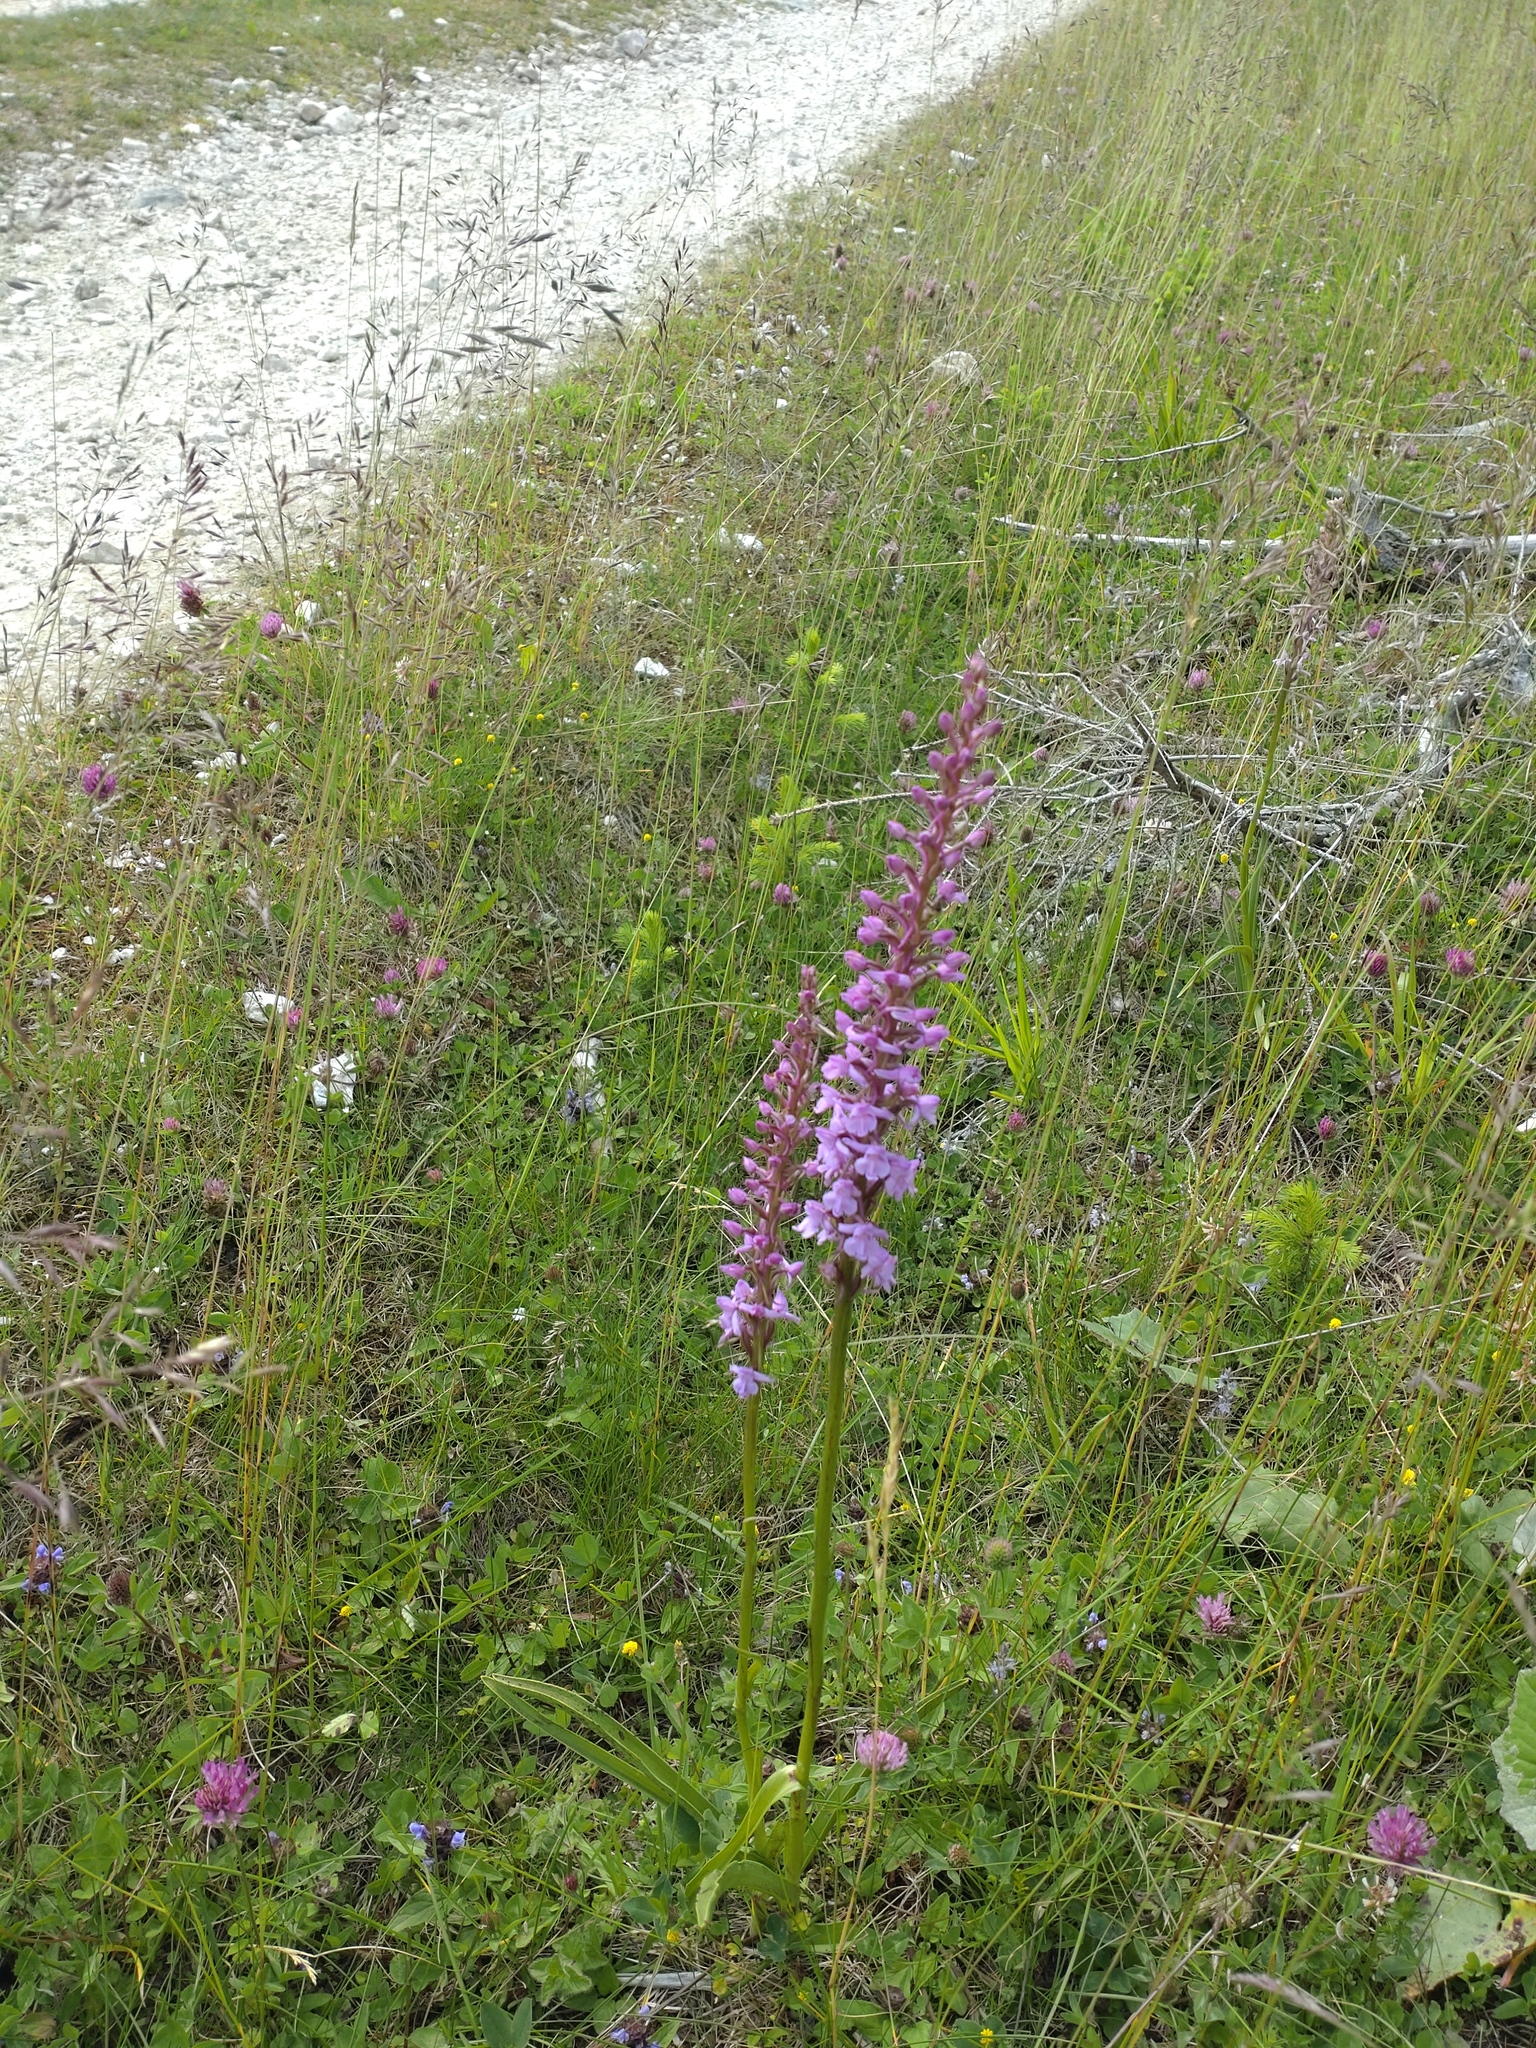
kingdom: Plantae
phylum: Tracheophyta
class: Liliopsida
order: Asparagales
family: Orchidaceae
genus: Gymnadenia
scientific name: Gymnadenia conopsea
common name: Fragrant orchid
